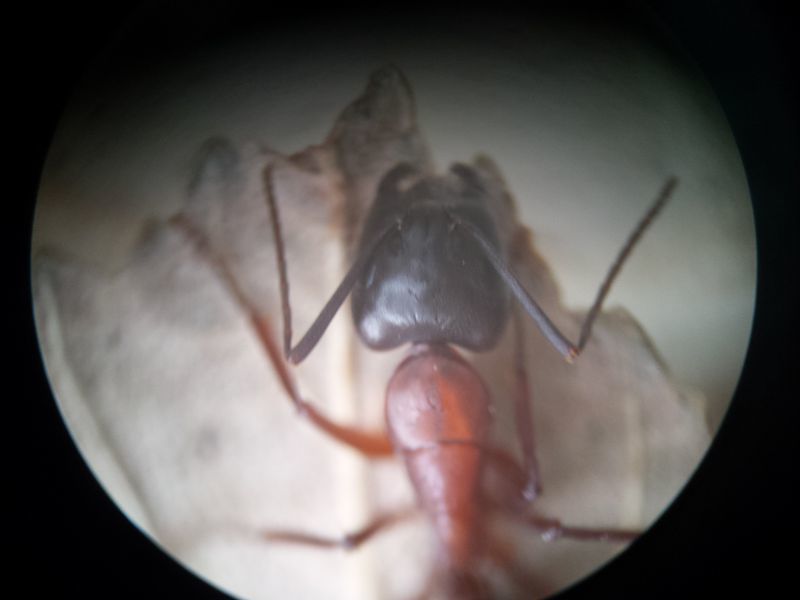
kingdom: Animalia
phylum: Arthropoda
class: Insecta
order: Hymenoptera
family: Formicidae
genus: Camponotus
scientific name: Camponotus vicinus
